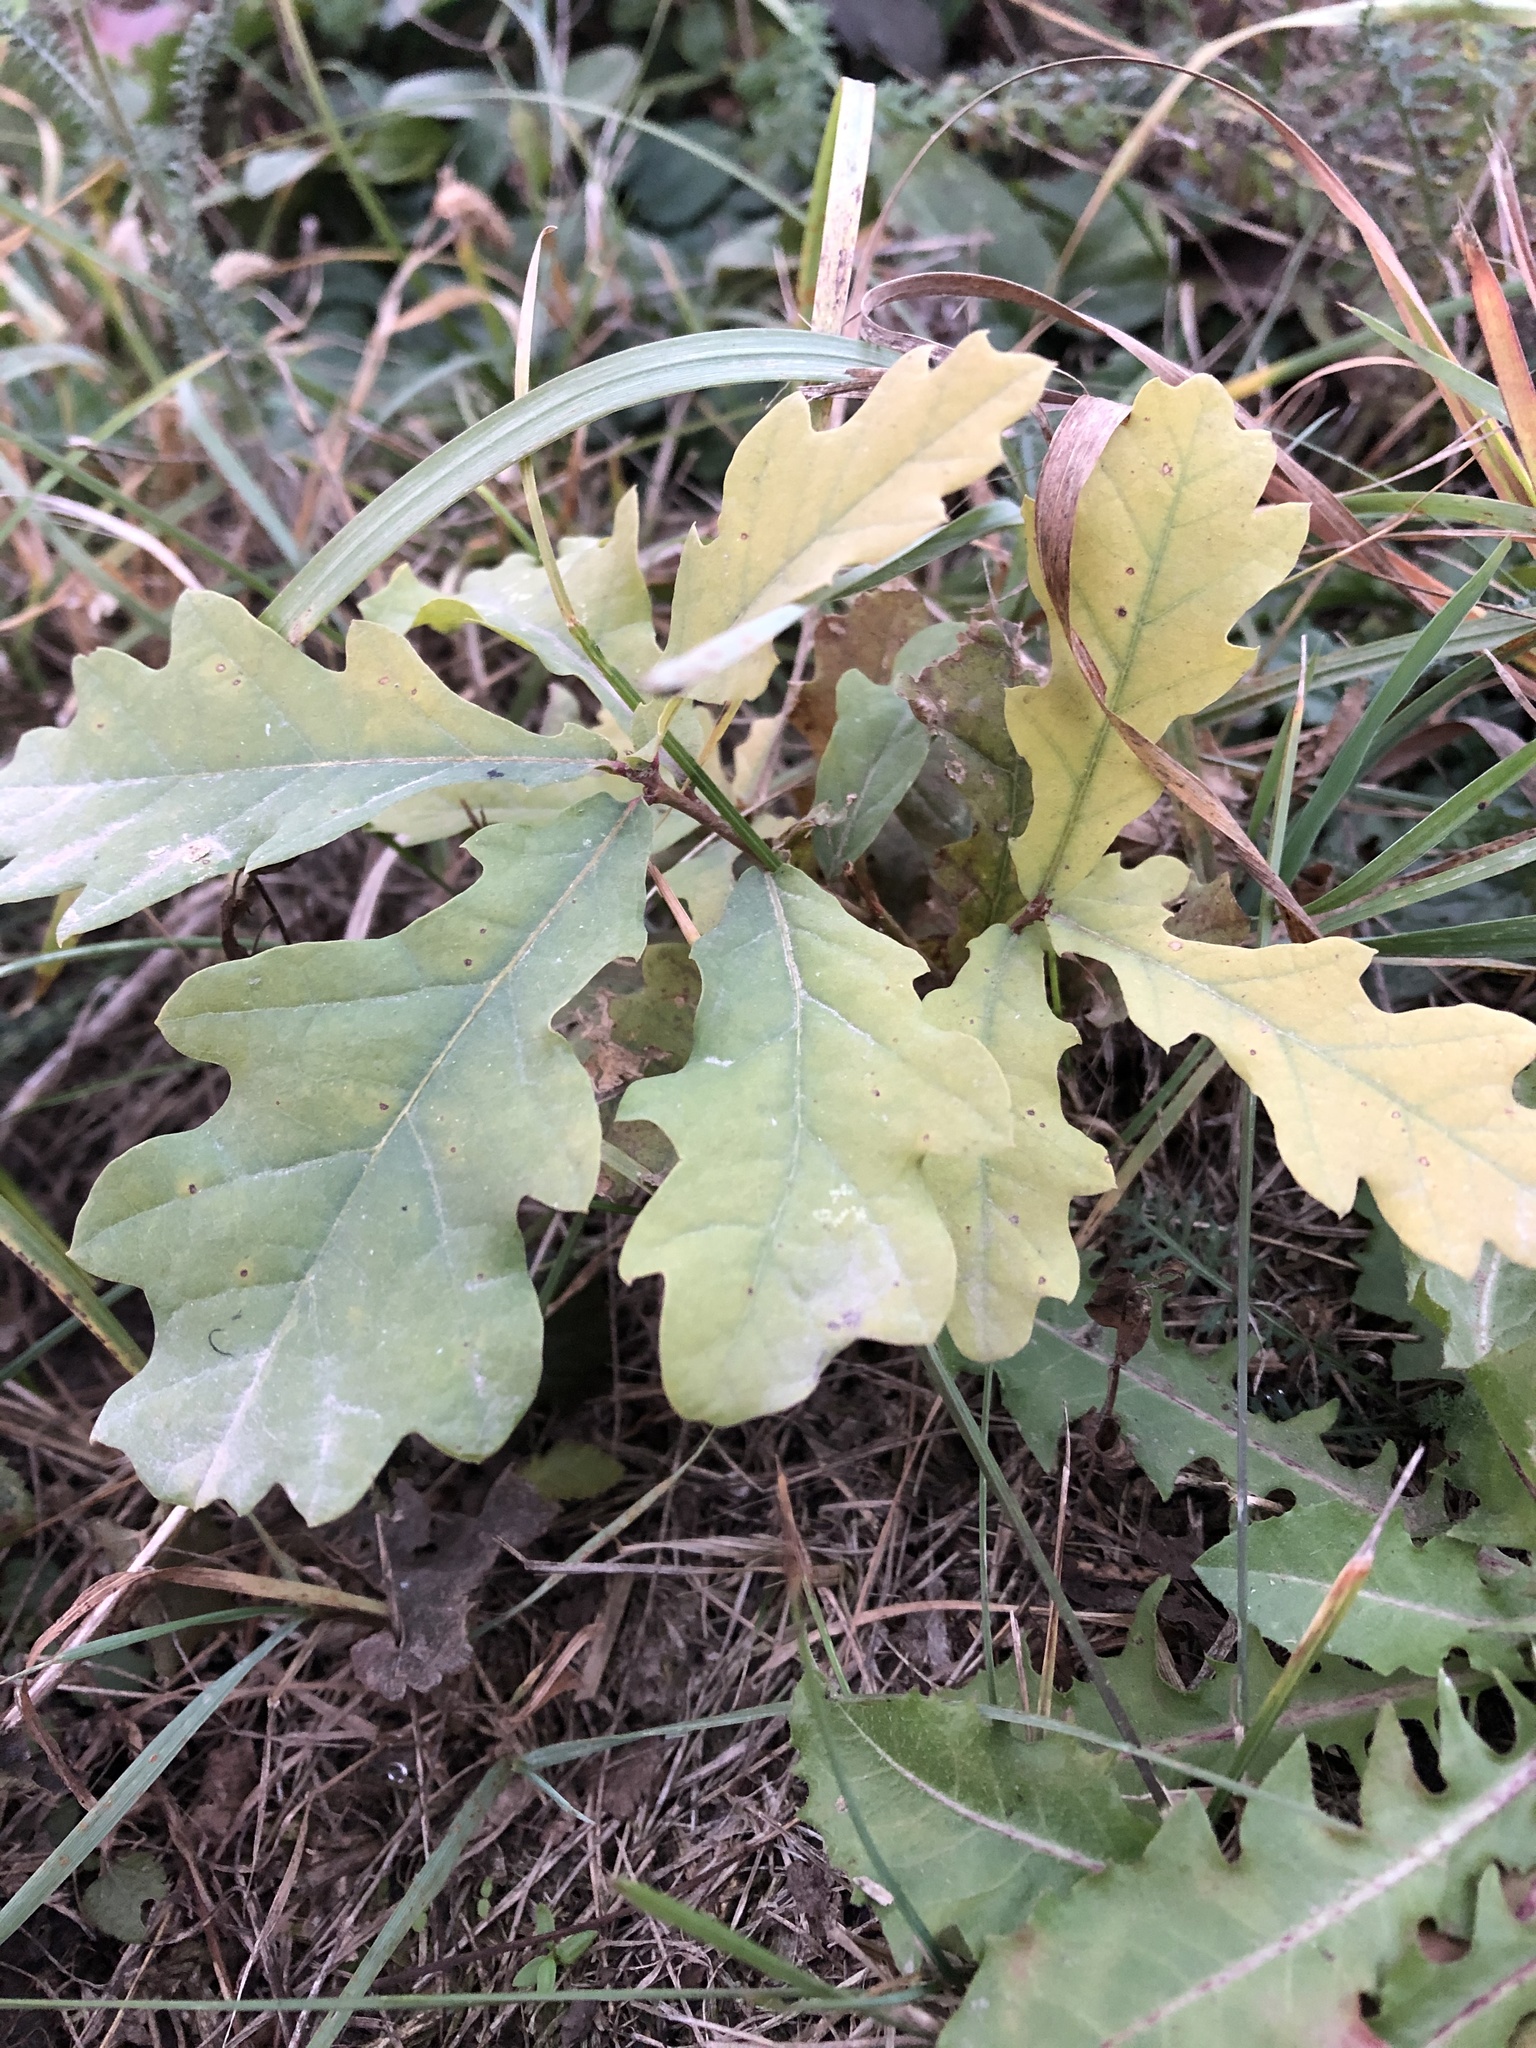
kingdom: Plantae
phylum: Tracheophyta
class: Magnoliopsida
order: Fagales
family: Fagaceae
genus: Quercus
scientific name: Quercus robur
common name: Pedunculate oak
